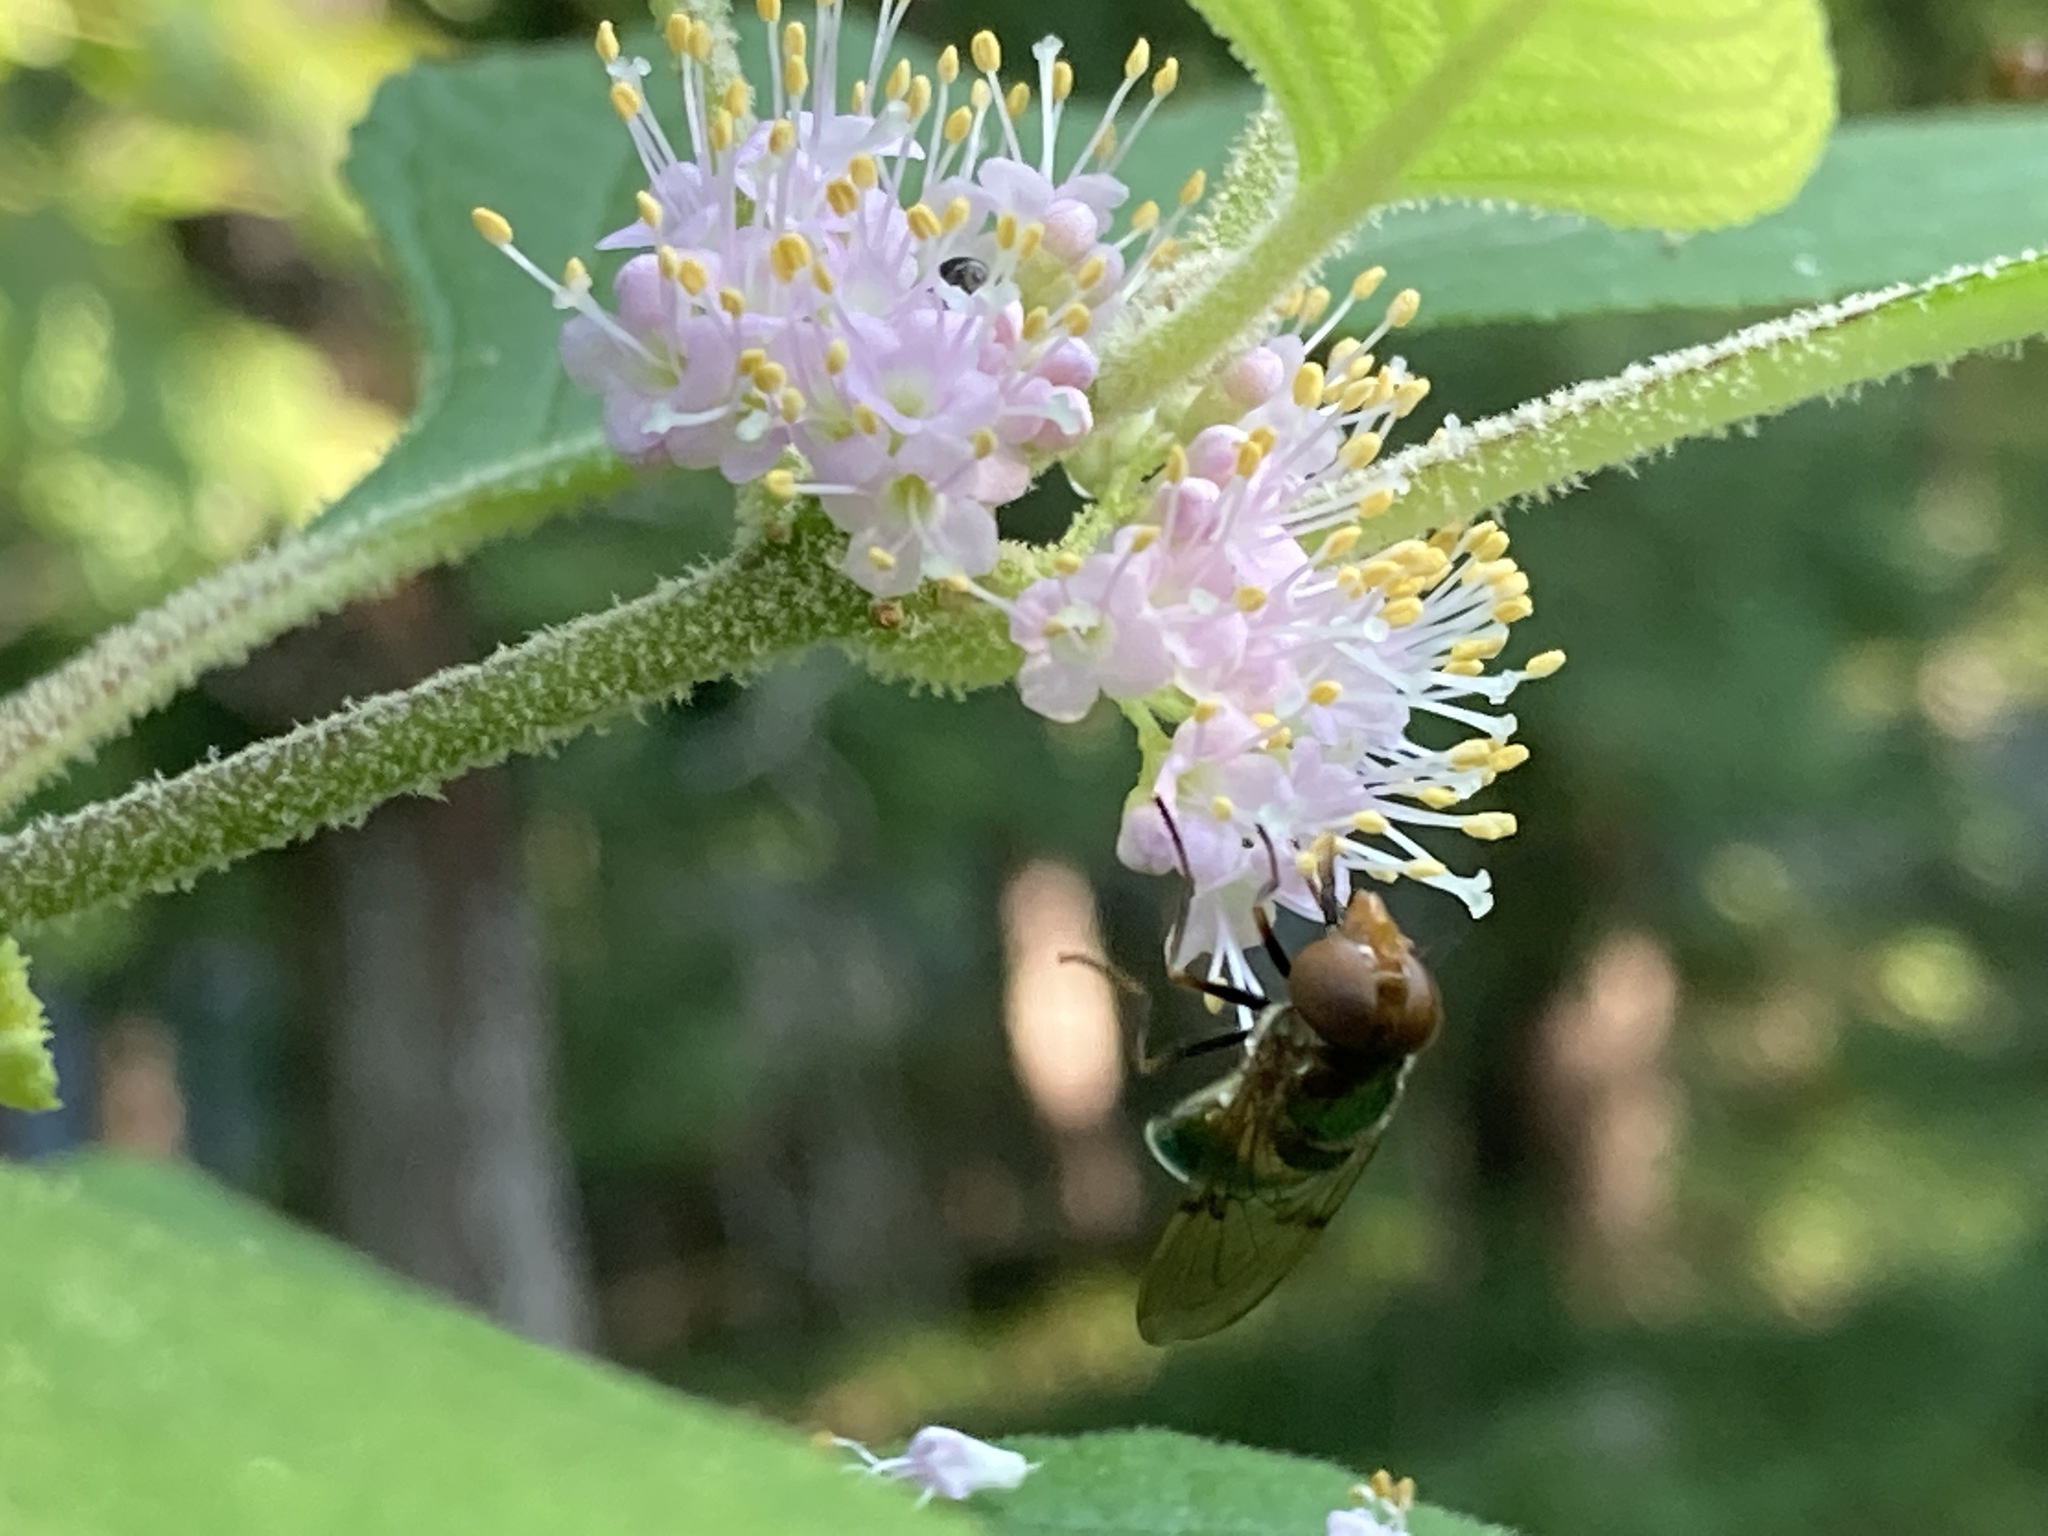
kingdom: Plantae
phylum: Tracheophyta
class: Magnoliopsida
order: Lamiales
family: Lamiaceae
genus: Callicarpa
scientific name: Callicarpa americana
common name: American beautyberry
